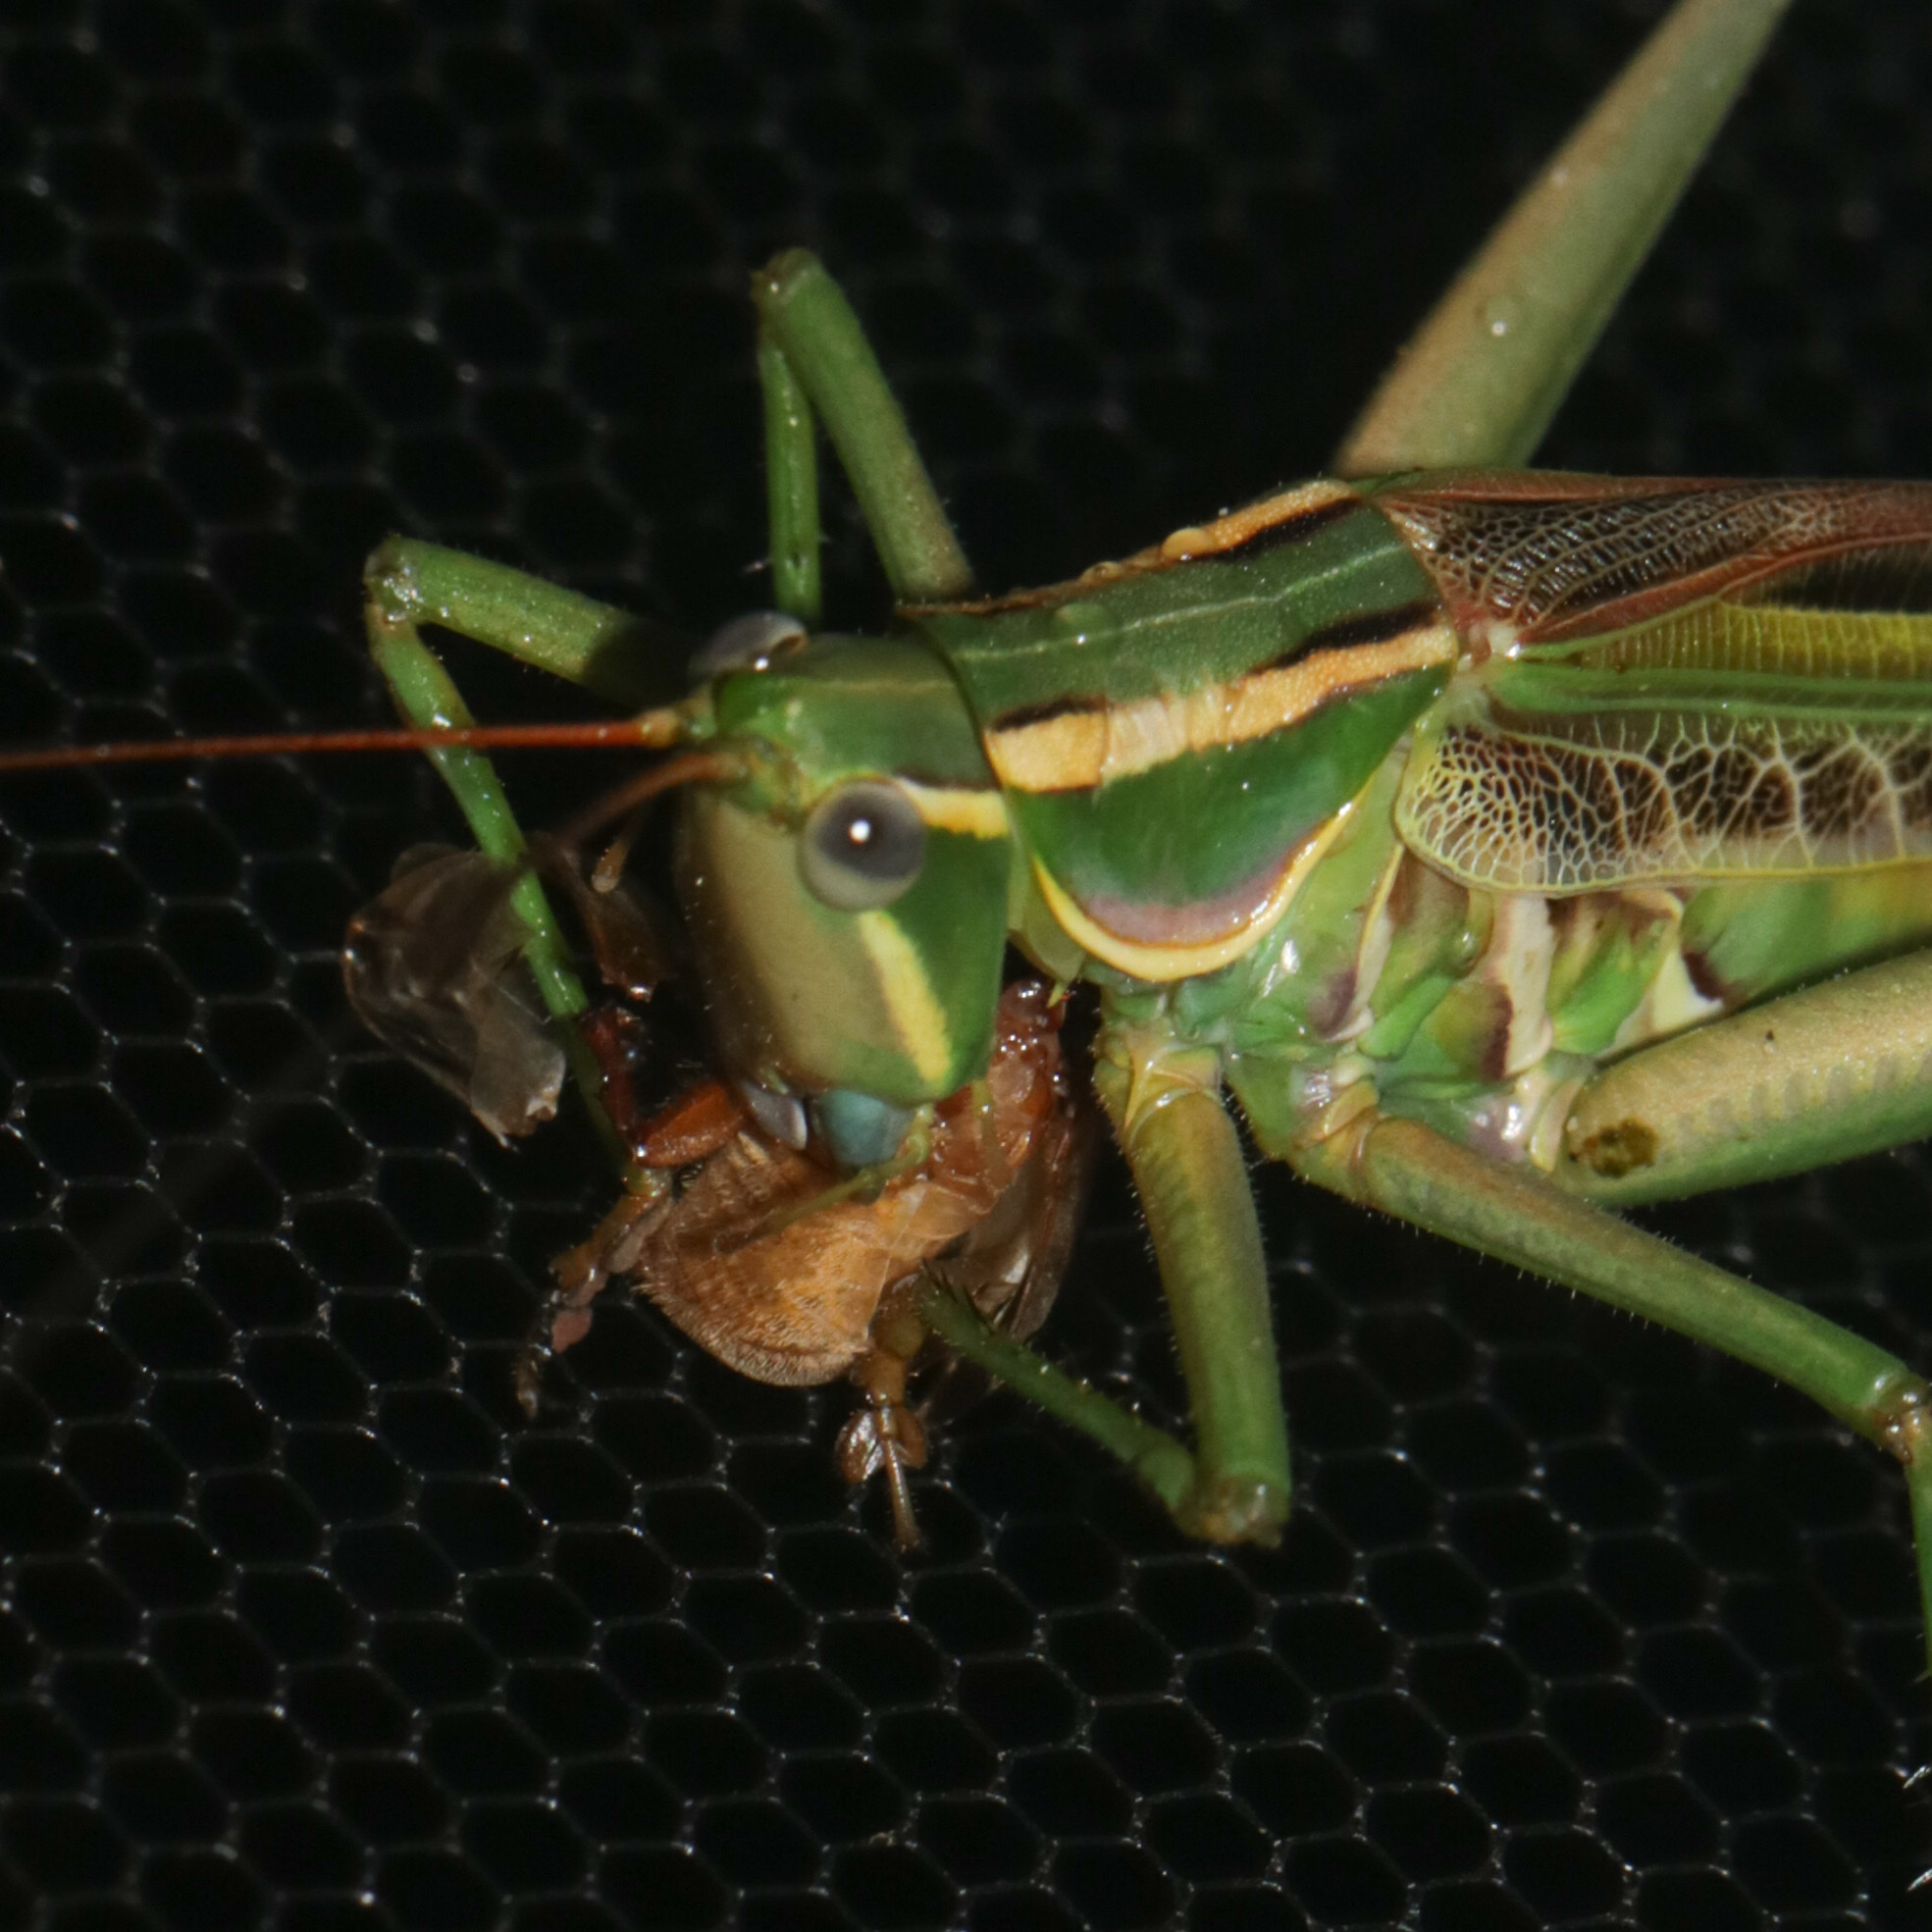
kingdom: Animalia
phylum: Arthropoda
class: Insecta
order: Orthoptera
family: Tettigoniidae
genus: Metaballus
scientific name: Metaballus decticoides
